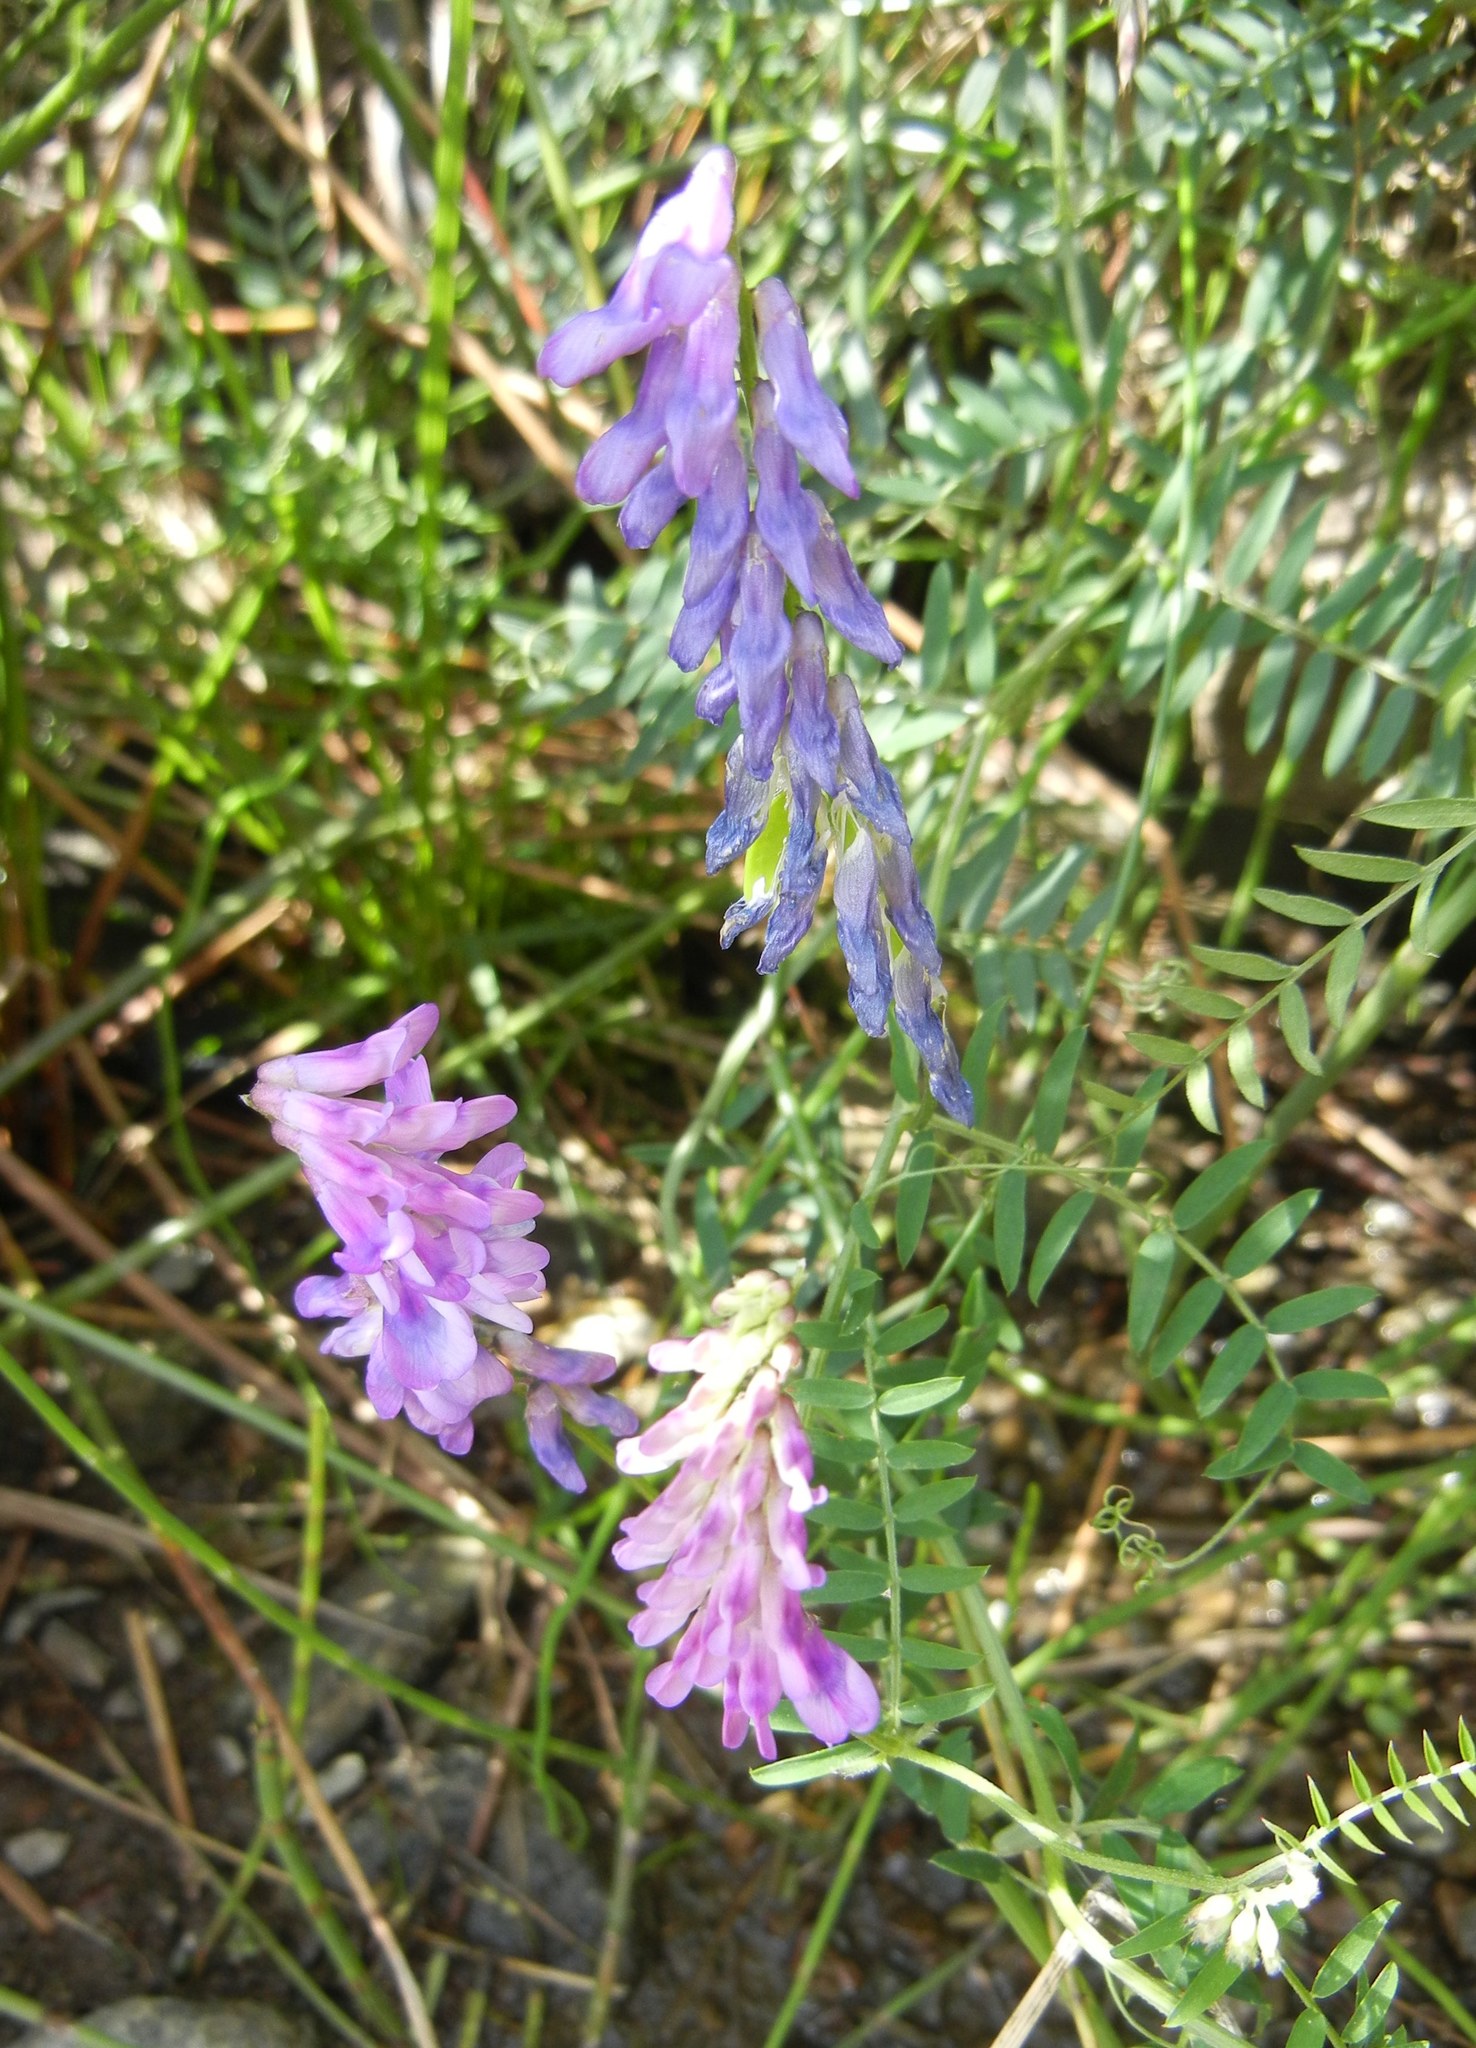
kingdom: Plantae
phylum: Tracheophyta
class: Magnoliopsida
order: Fabales
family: Fabaceae
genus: Vicia
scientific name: Vicia cracca
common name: Bird vetch
